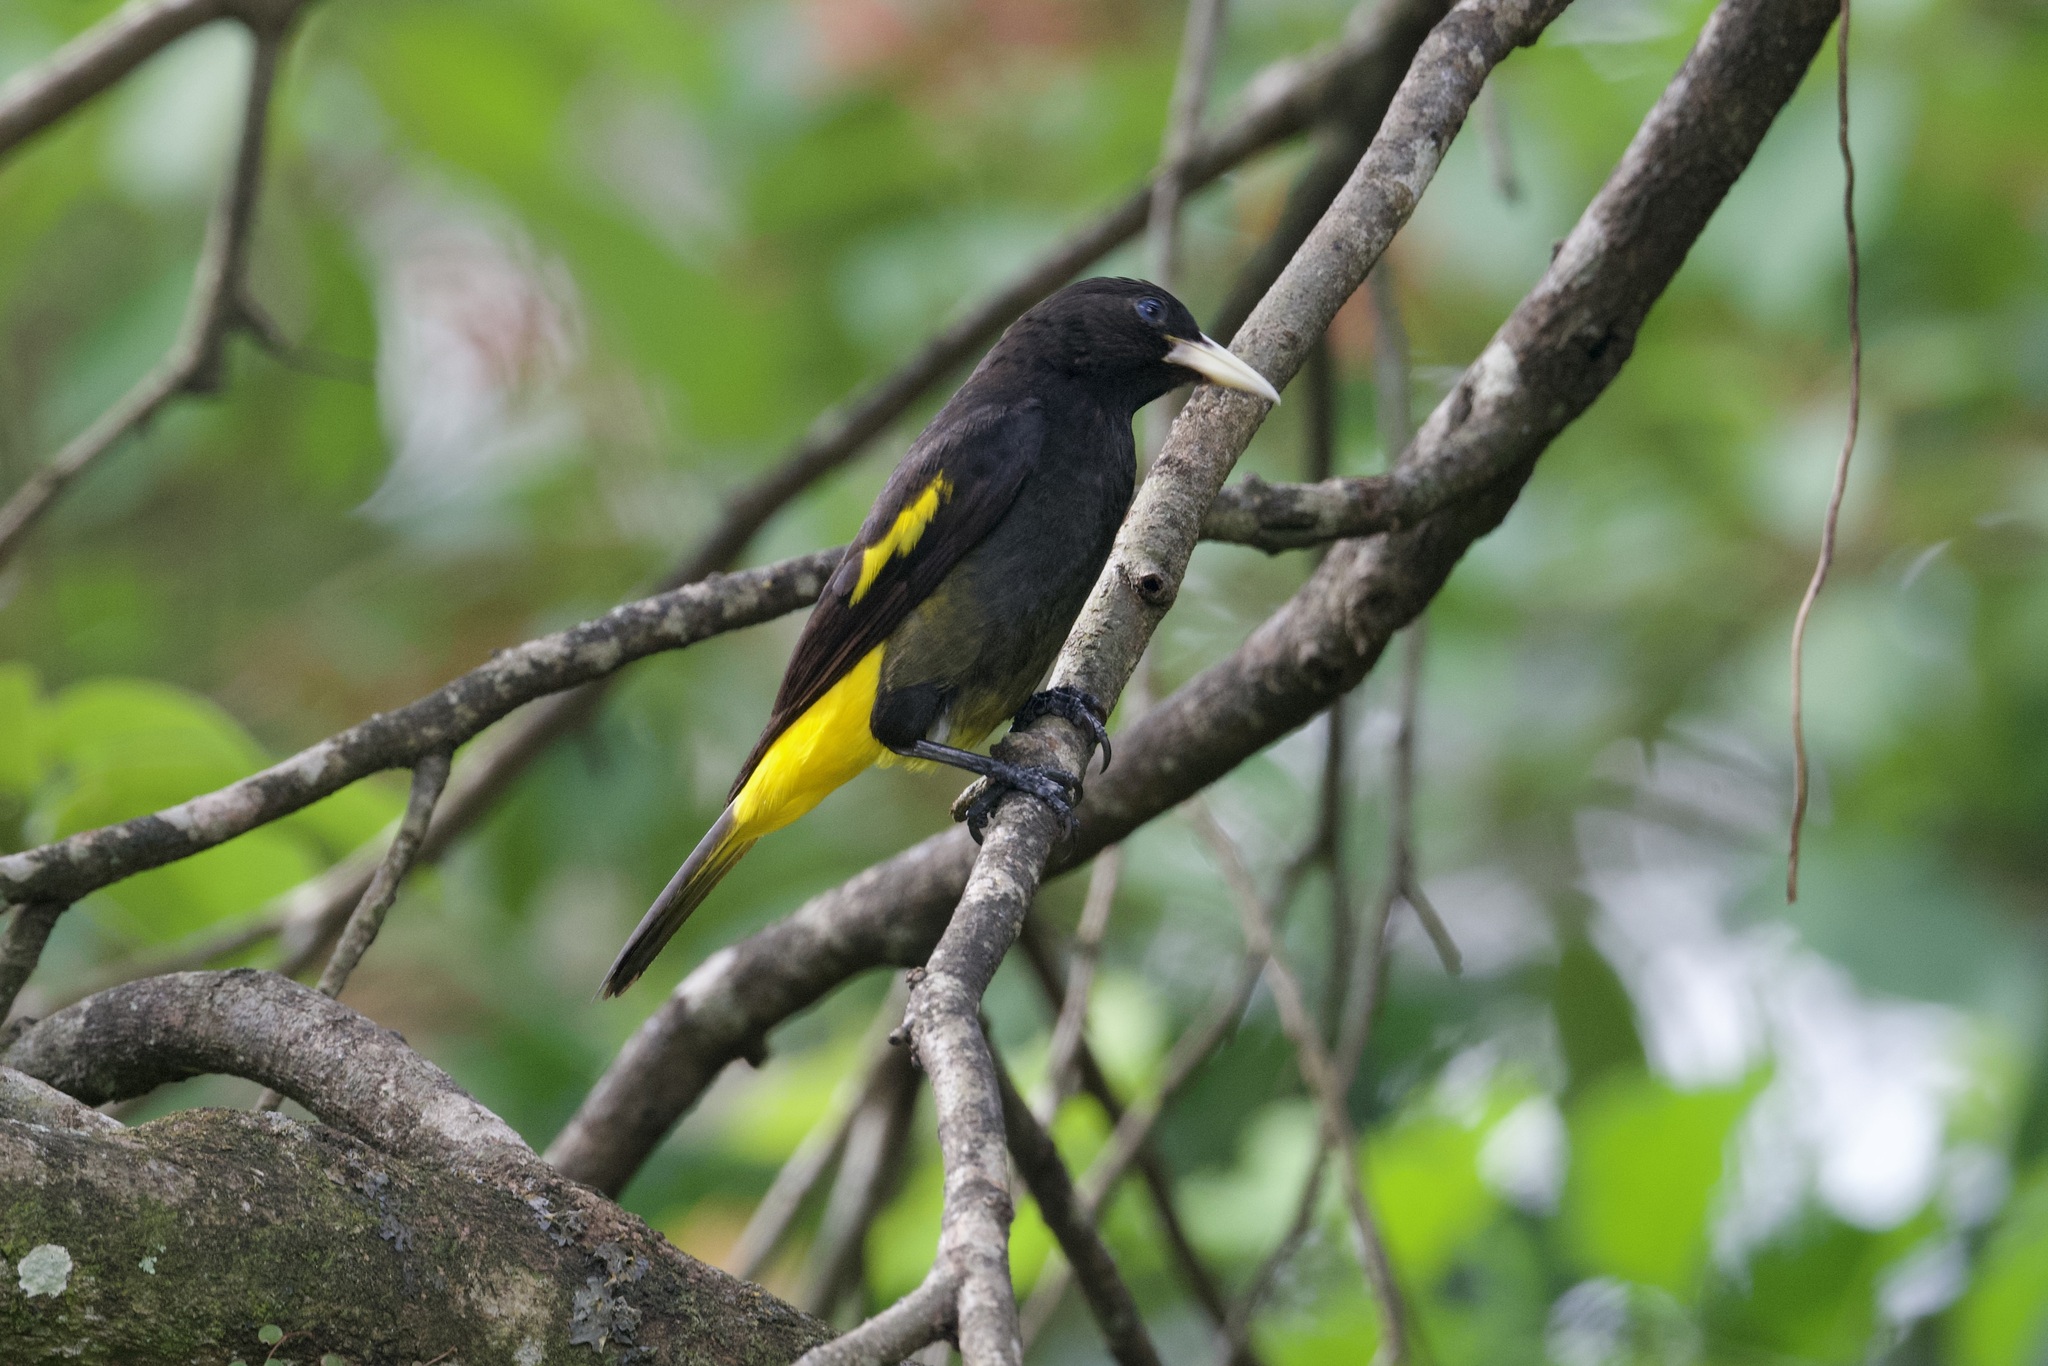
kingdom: Animalia
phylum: Chordata
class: Aves
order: Passeriformes
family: Icteridae
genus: Cacicus
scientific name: Cacicus cela
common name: Yellow-rumped cacique
